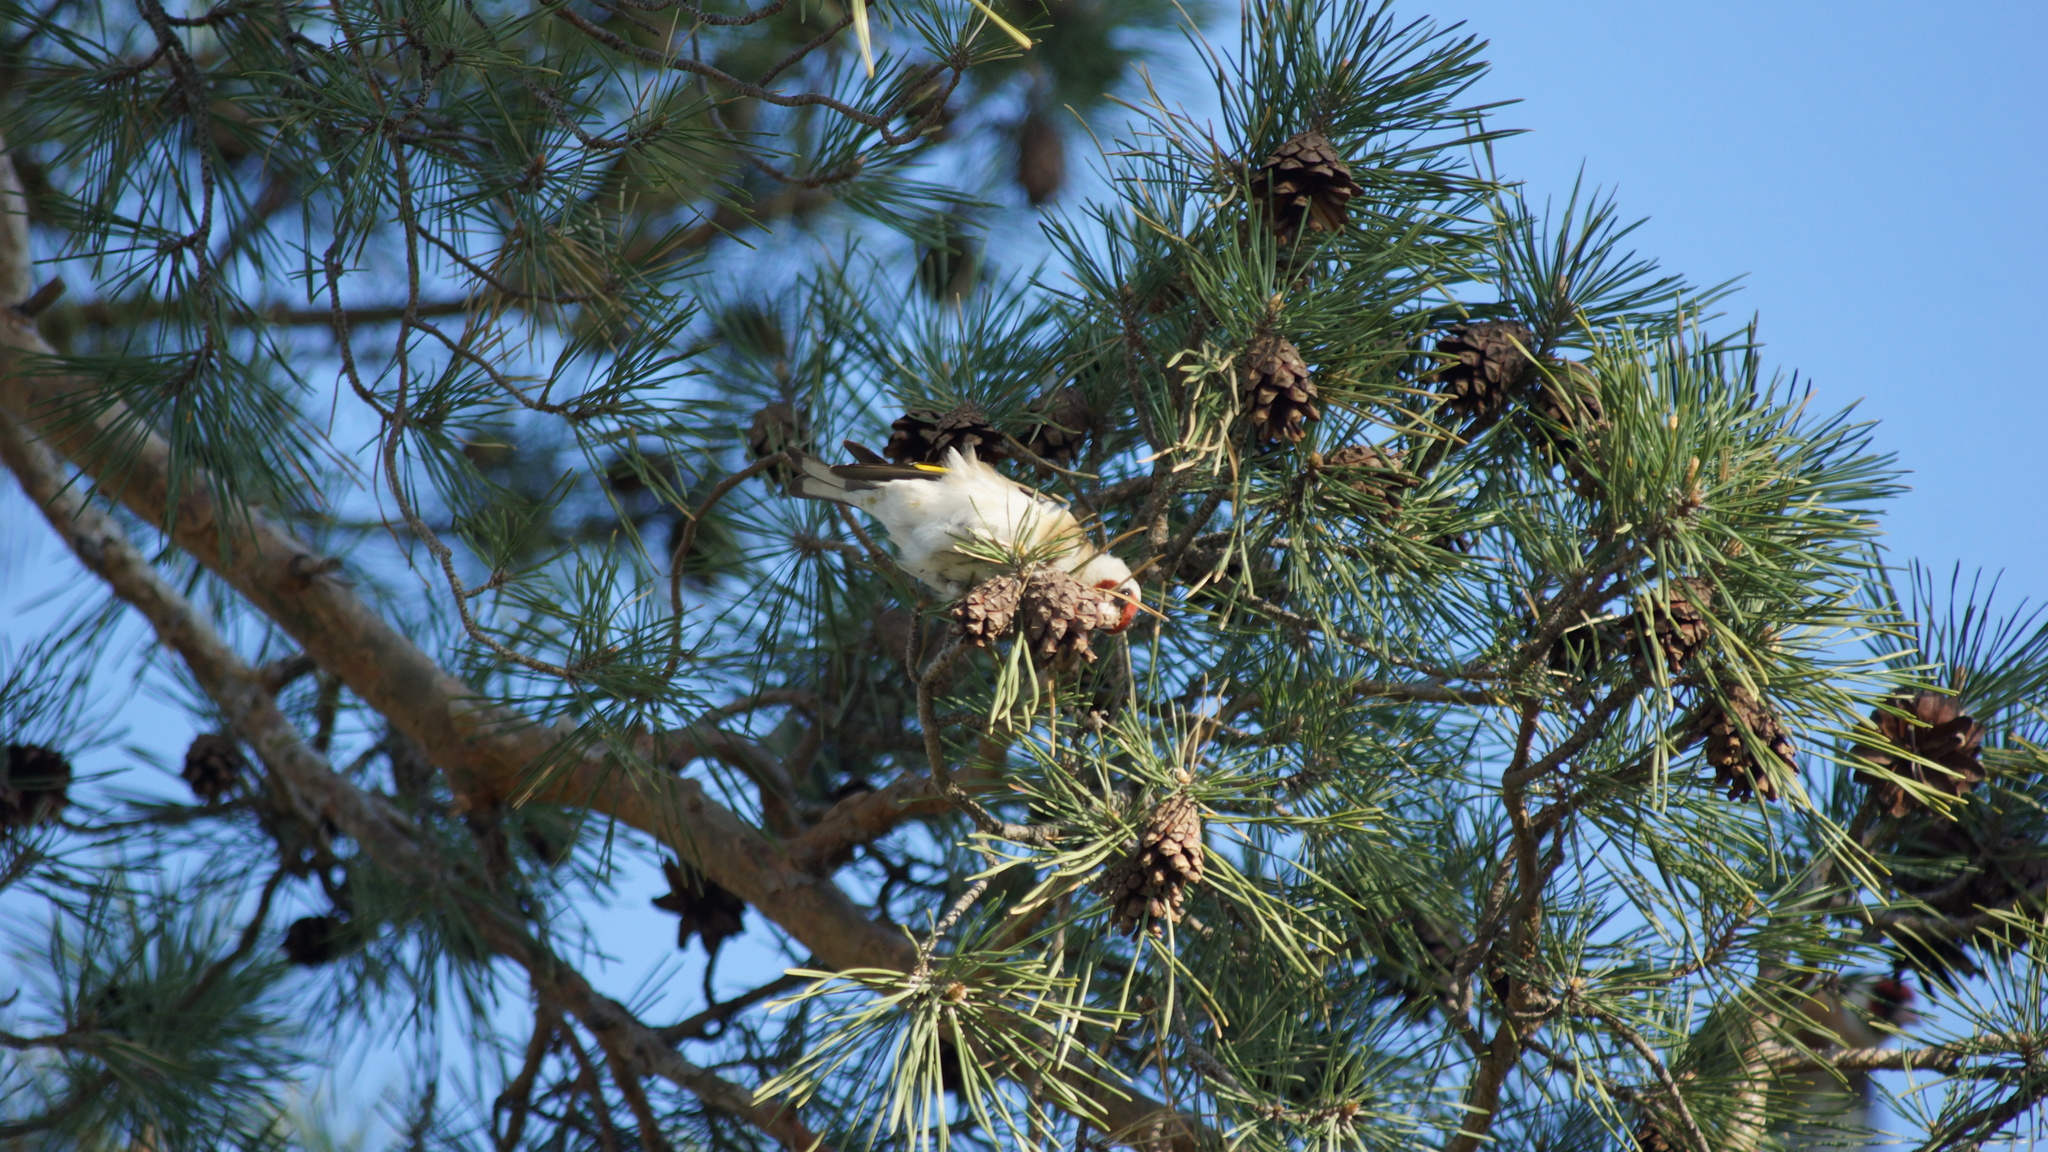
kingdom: Animalia
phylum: Chordata
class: Aves
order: Passeriformes
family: Fringillidae
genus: Carduelis
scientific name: Carduelis carduelis
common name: European goldfinch
